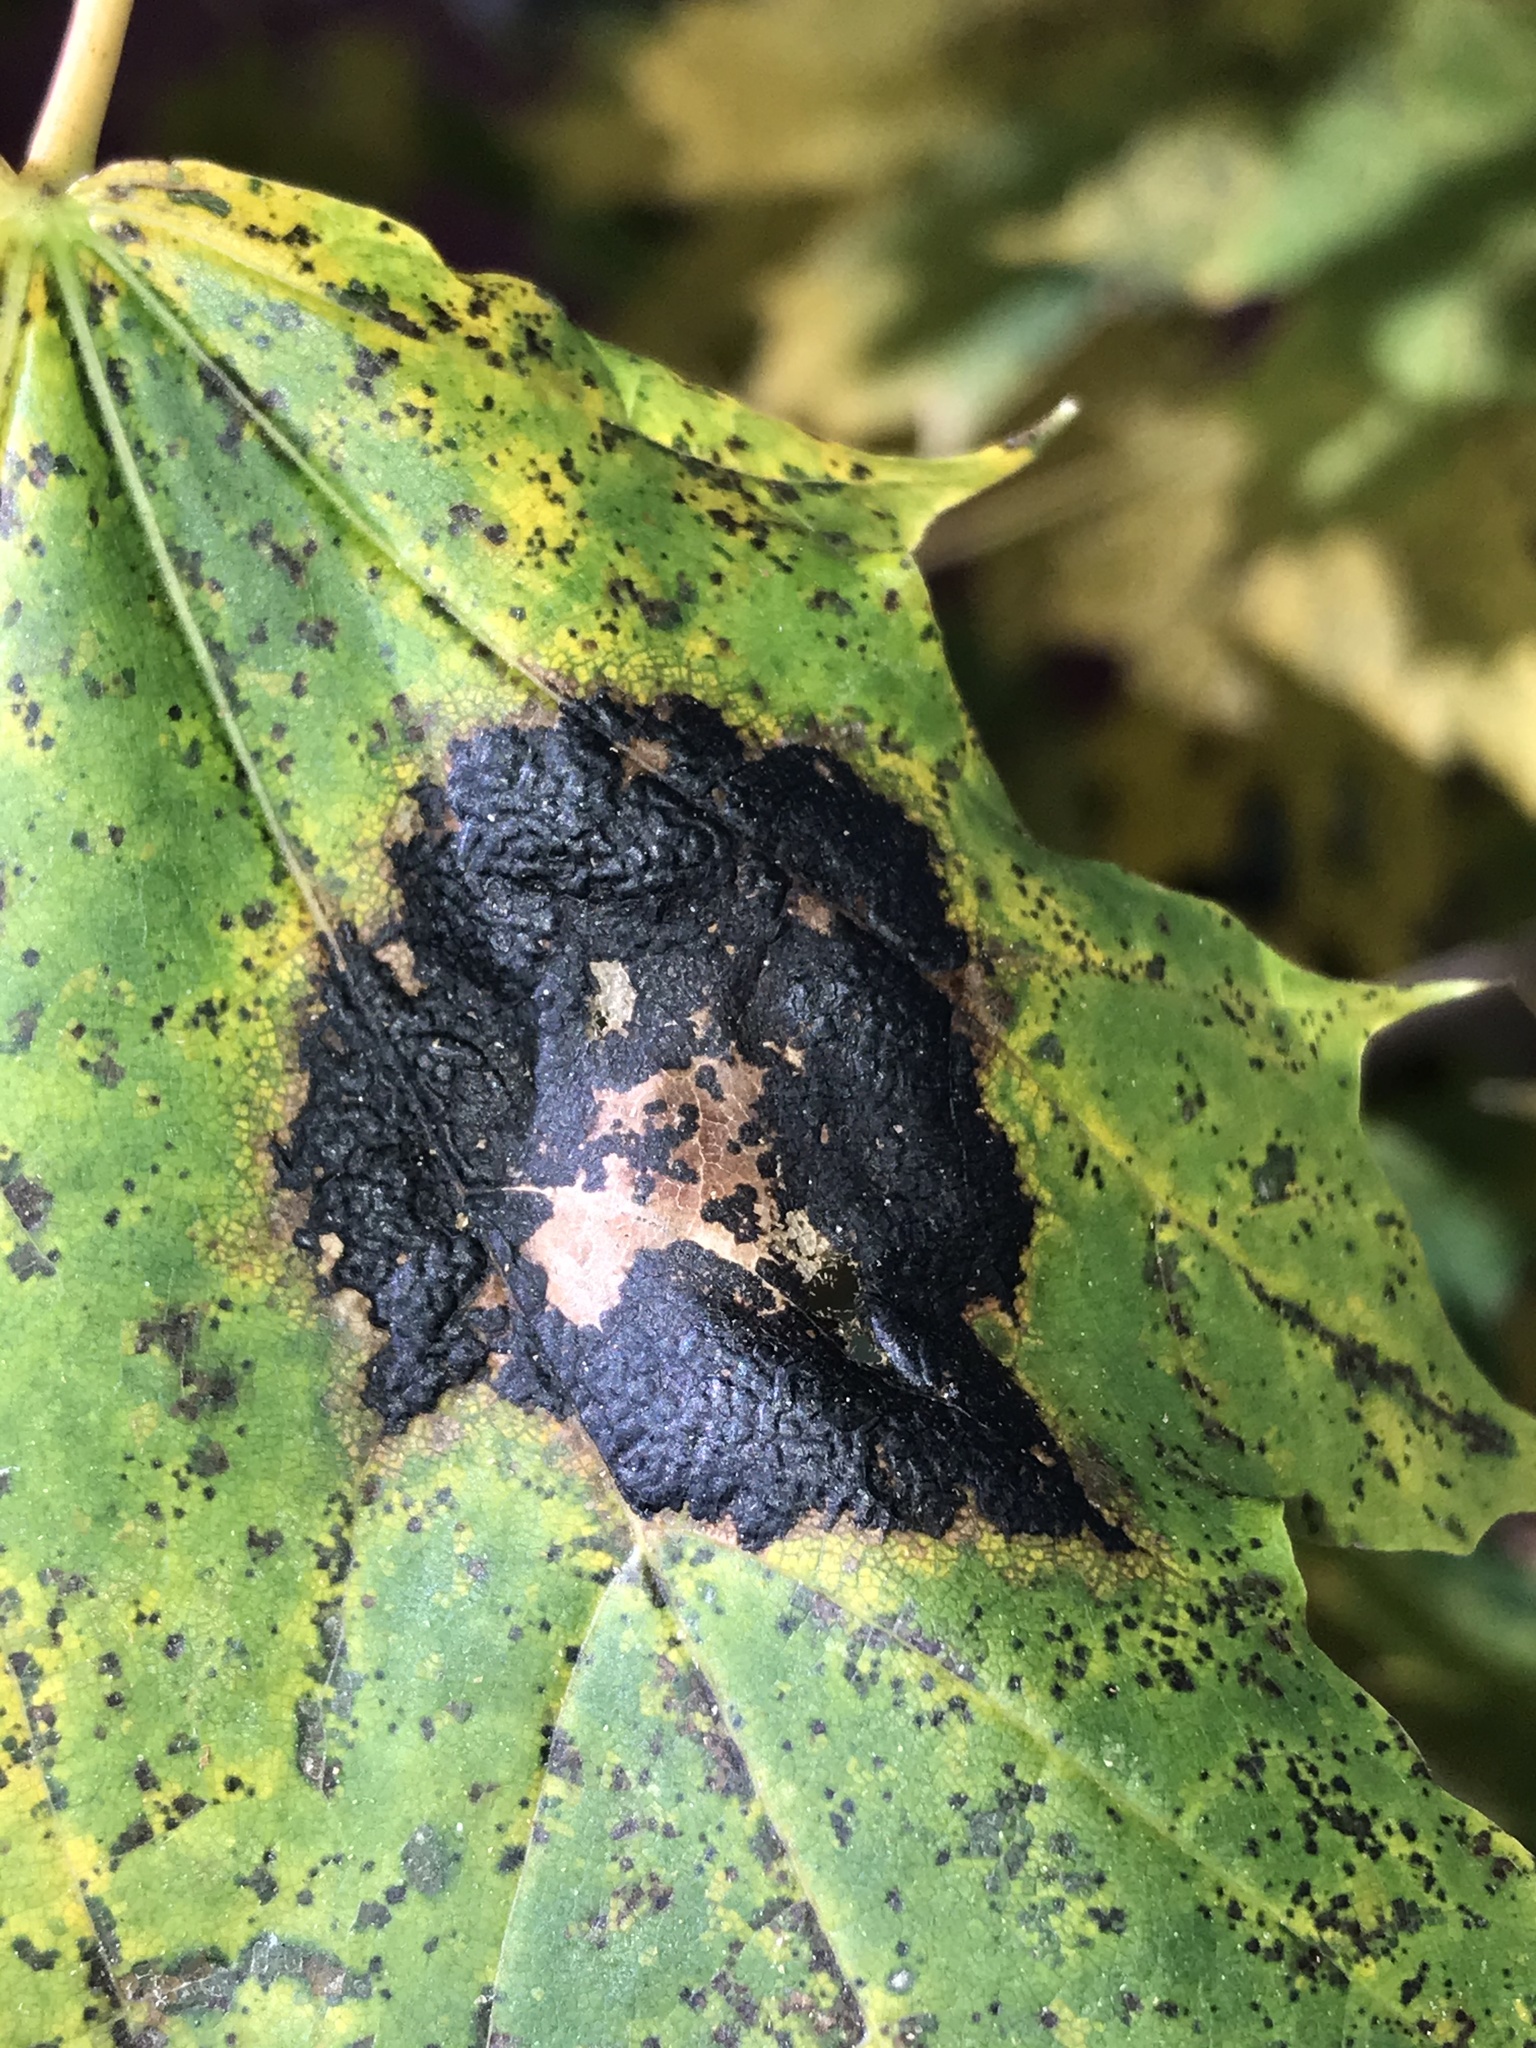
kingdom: Fungi
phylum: Ascomycota
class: Leotiomycetes
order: Rhytismatales
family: Rhytismataceae
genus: Rhytisma
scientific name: Rhytisma acerinum
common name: European tar spot
